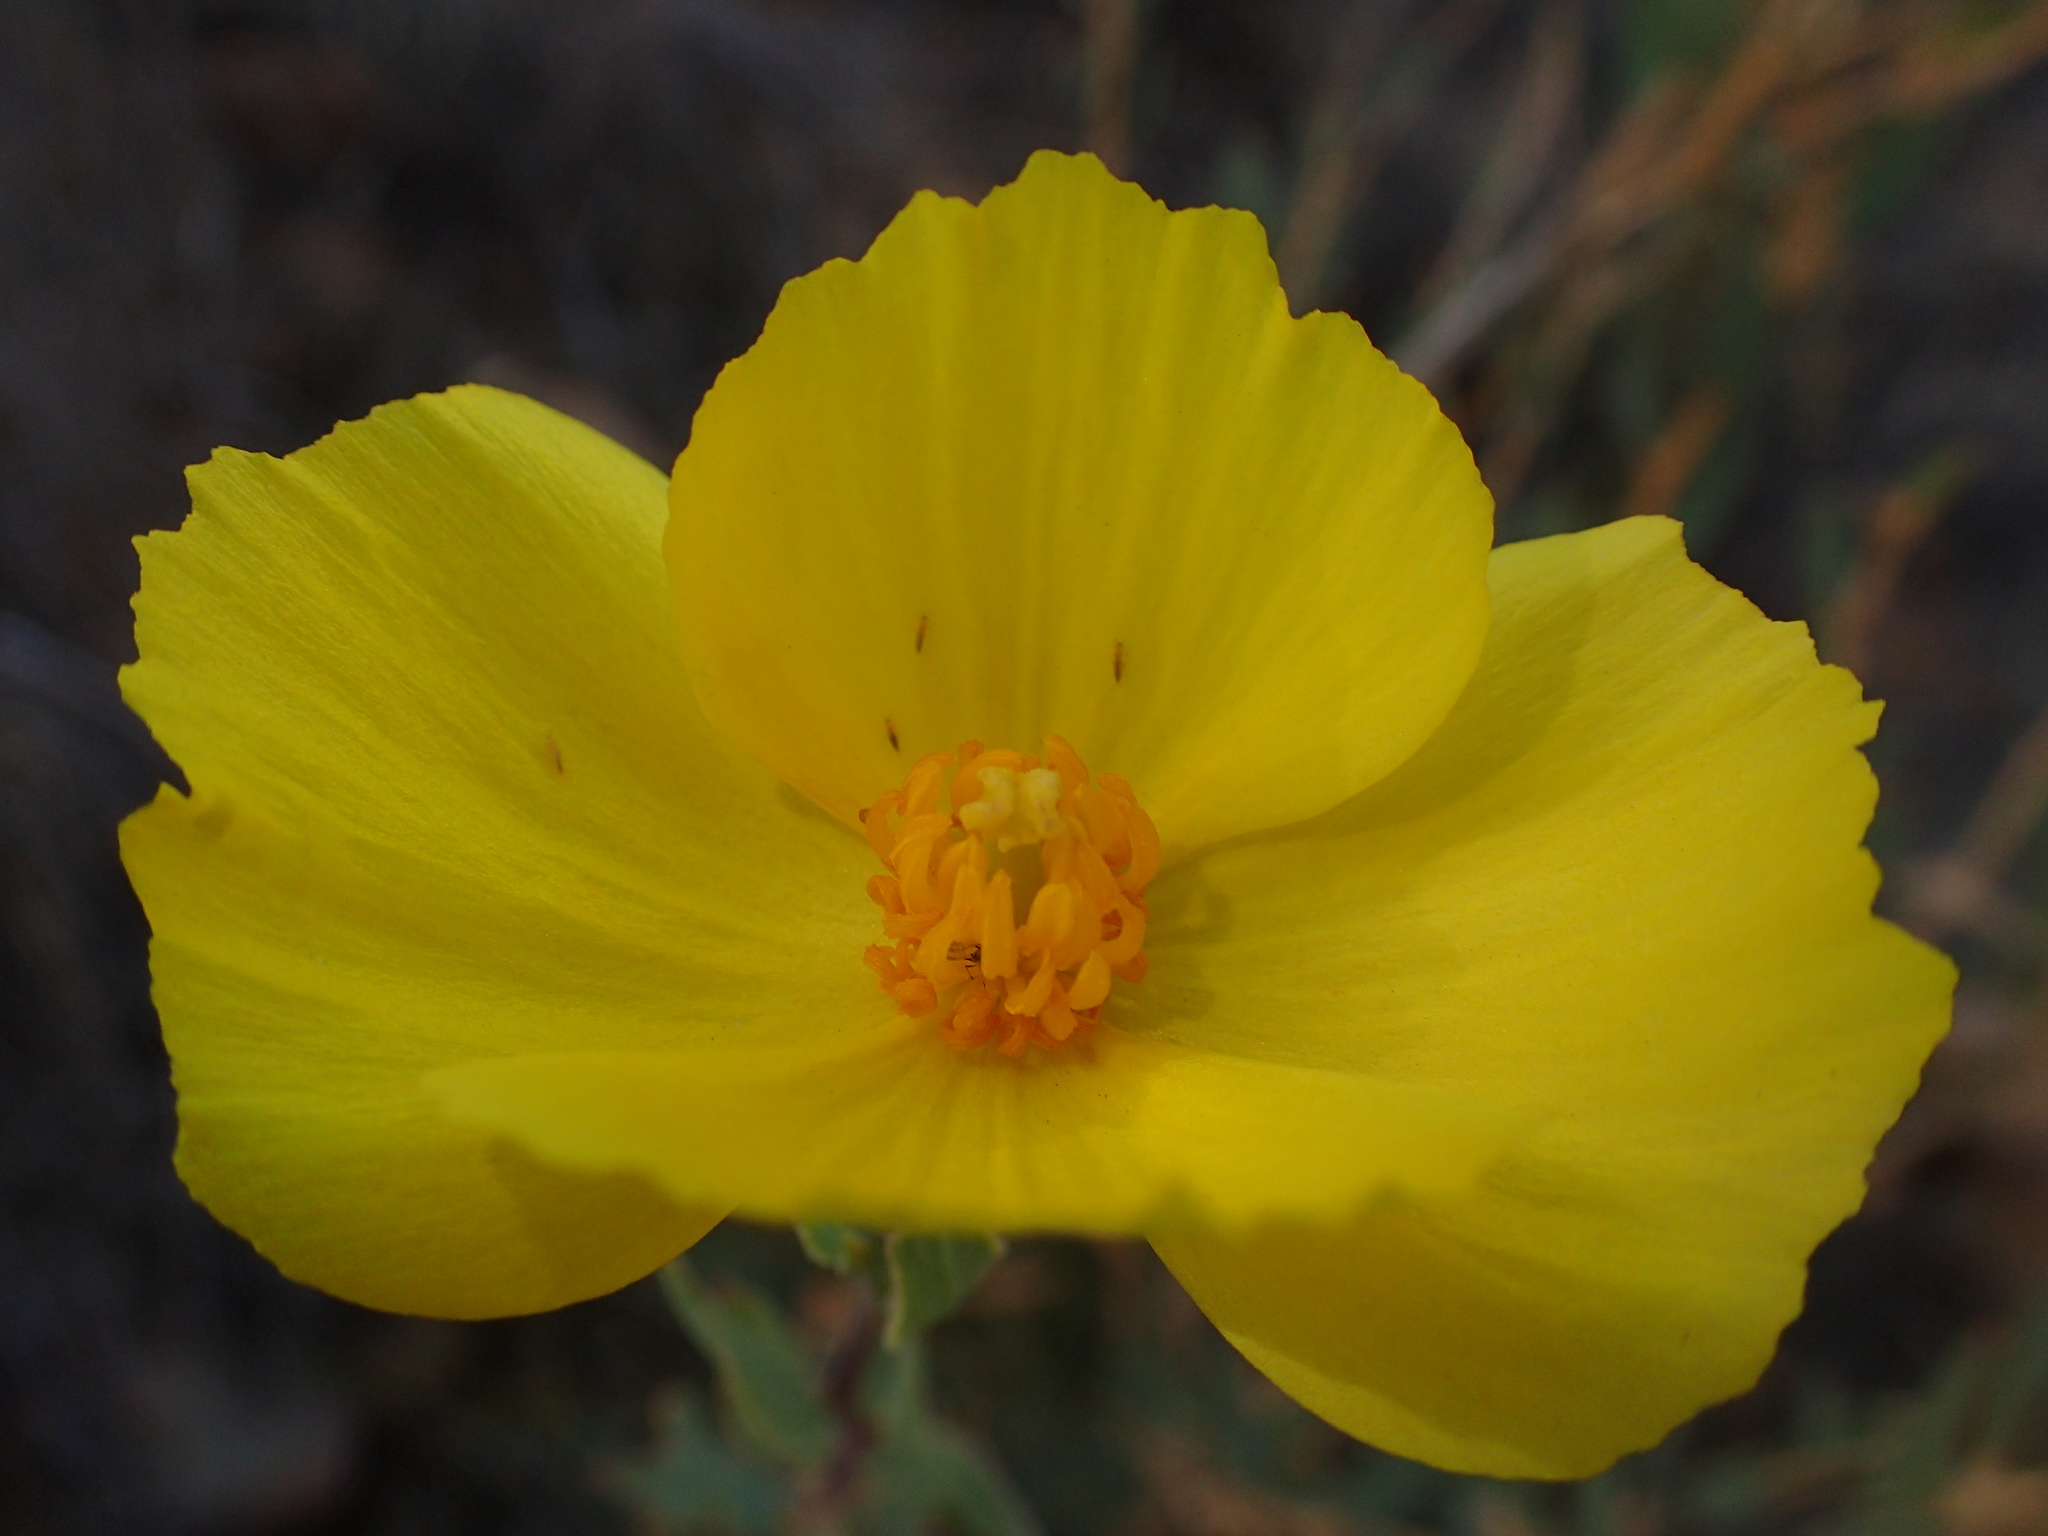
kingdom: Plantae
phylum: Tracheophyta
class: Magnoliopsida
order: Ranunculales
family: Papaveraceae
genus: Dendromecon
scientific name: Dendromecon rigida
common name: Tree poppy
